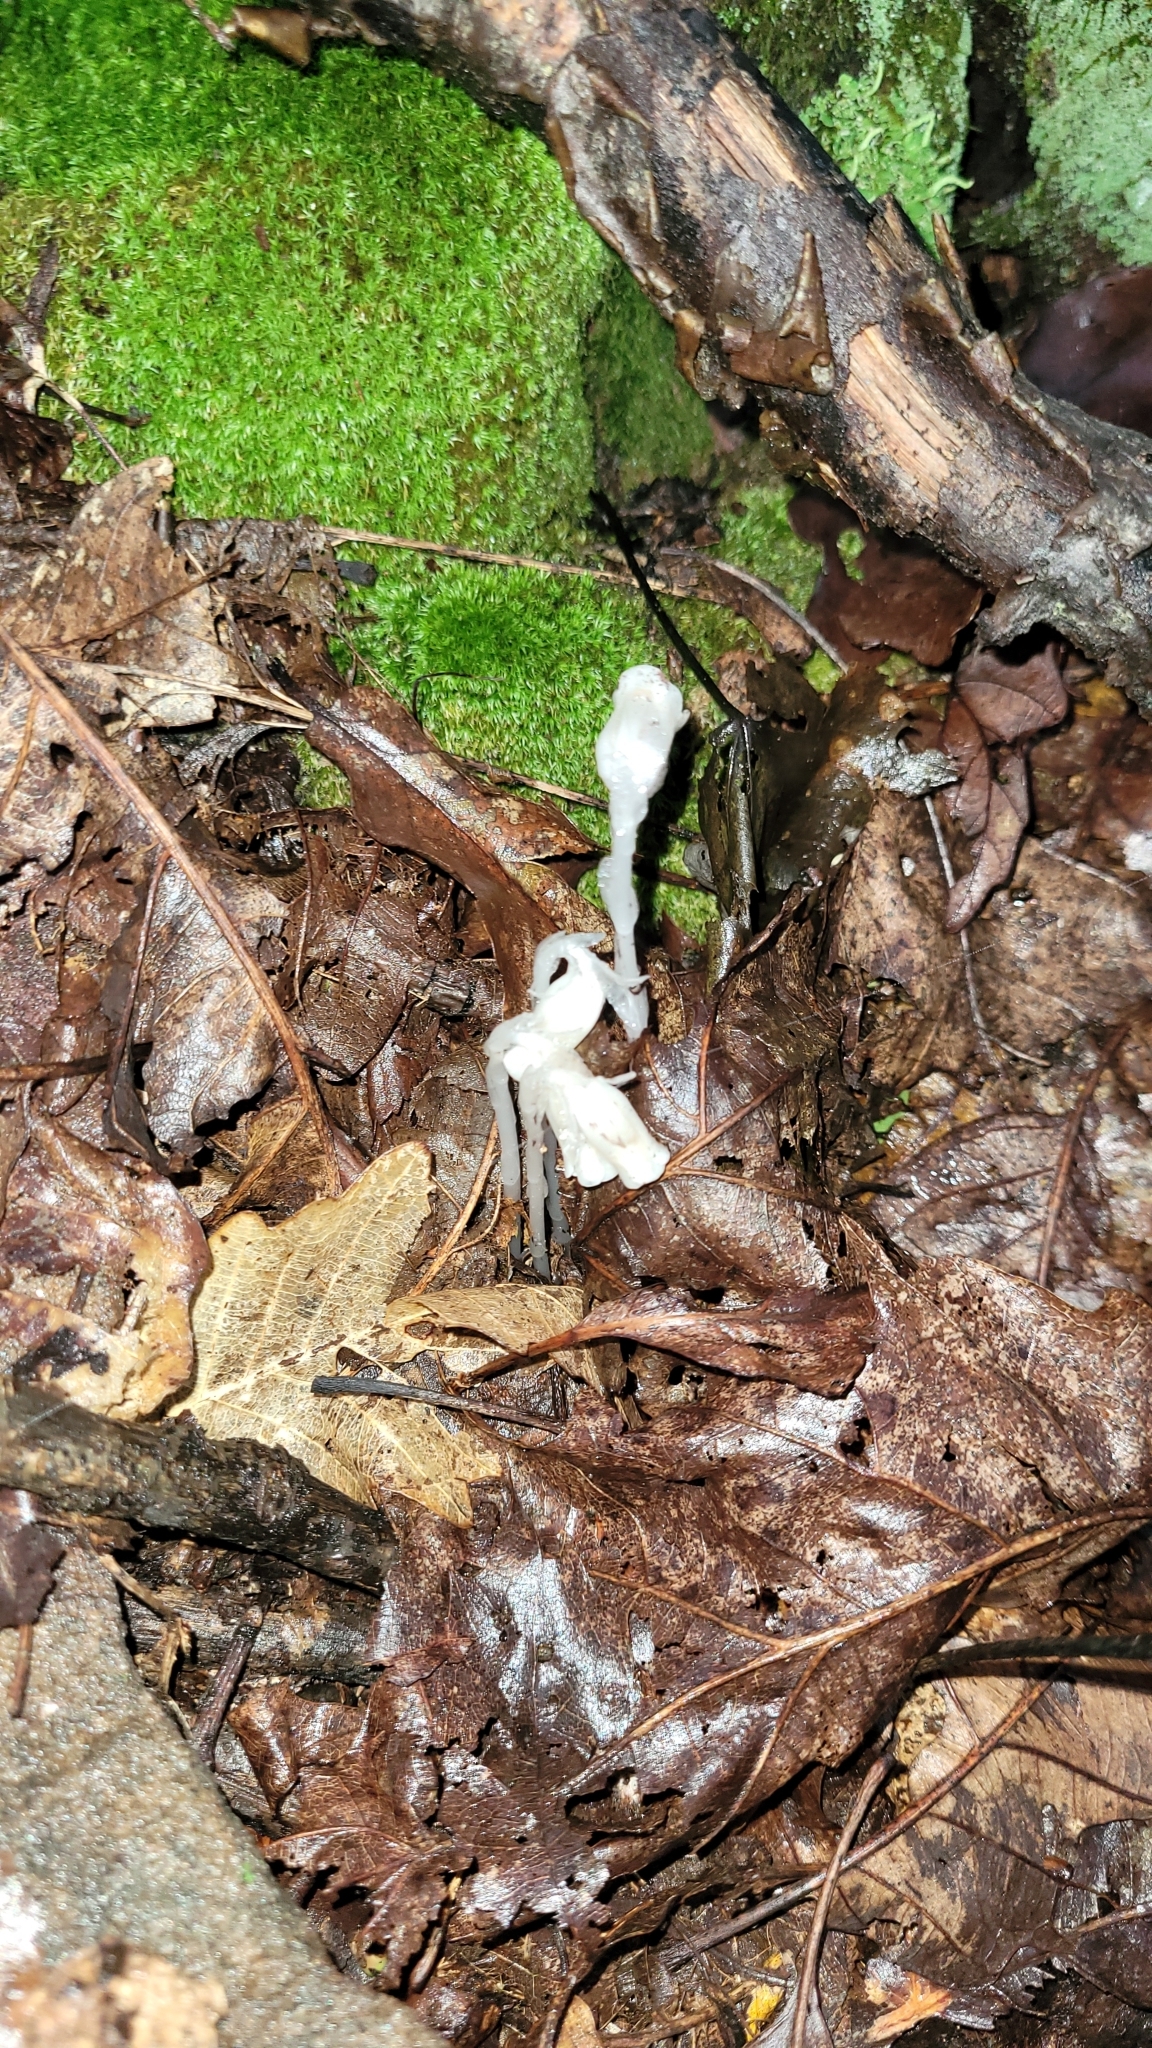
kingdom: Plantae
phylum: Tracheophyta
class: Magnoliopsida
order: Ericales
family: Ericaceae
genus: Monotropa
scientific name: Monotropa uniflora
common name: Convulsion root
